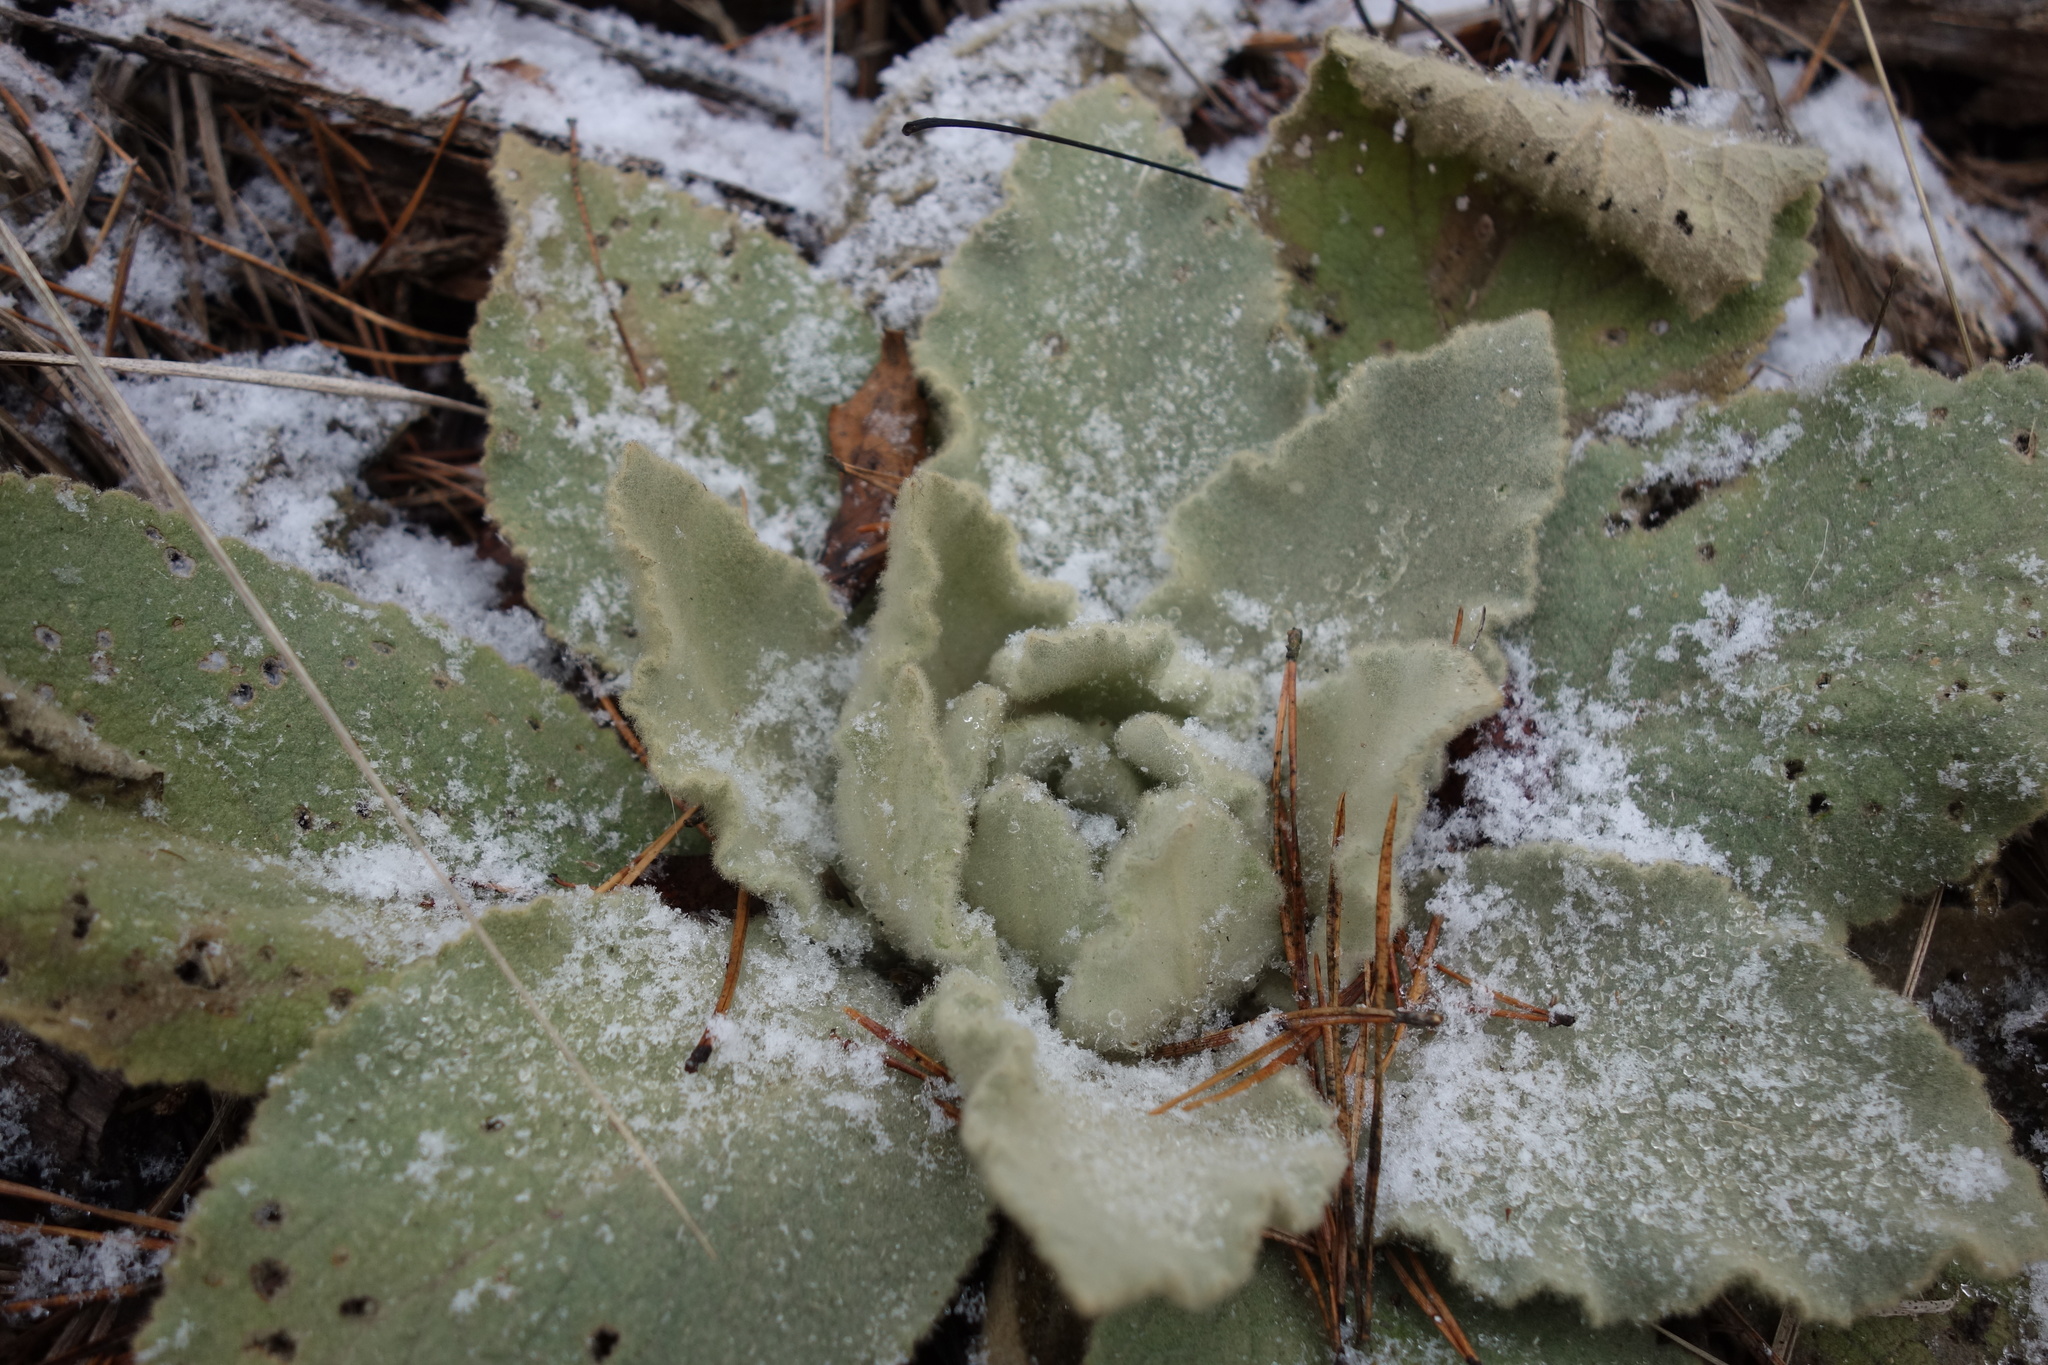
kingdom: Plantae
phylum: Tracheophyta
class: Magnoliopsida
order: Lamiales
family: Scrophulariaceae
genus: Verbascum
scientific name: Verbascum thapsus
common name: Common mullein
